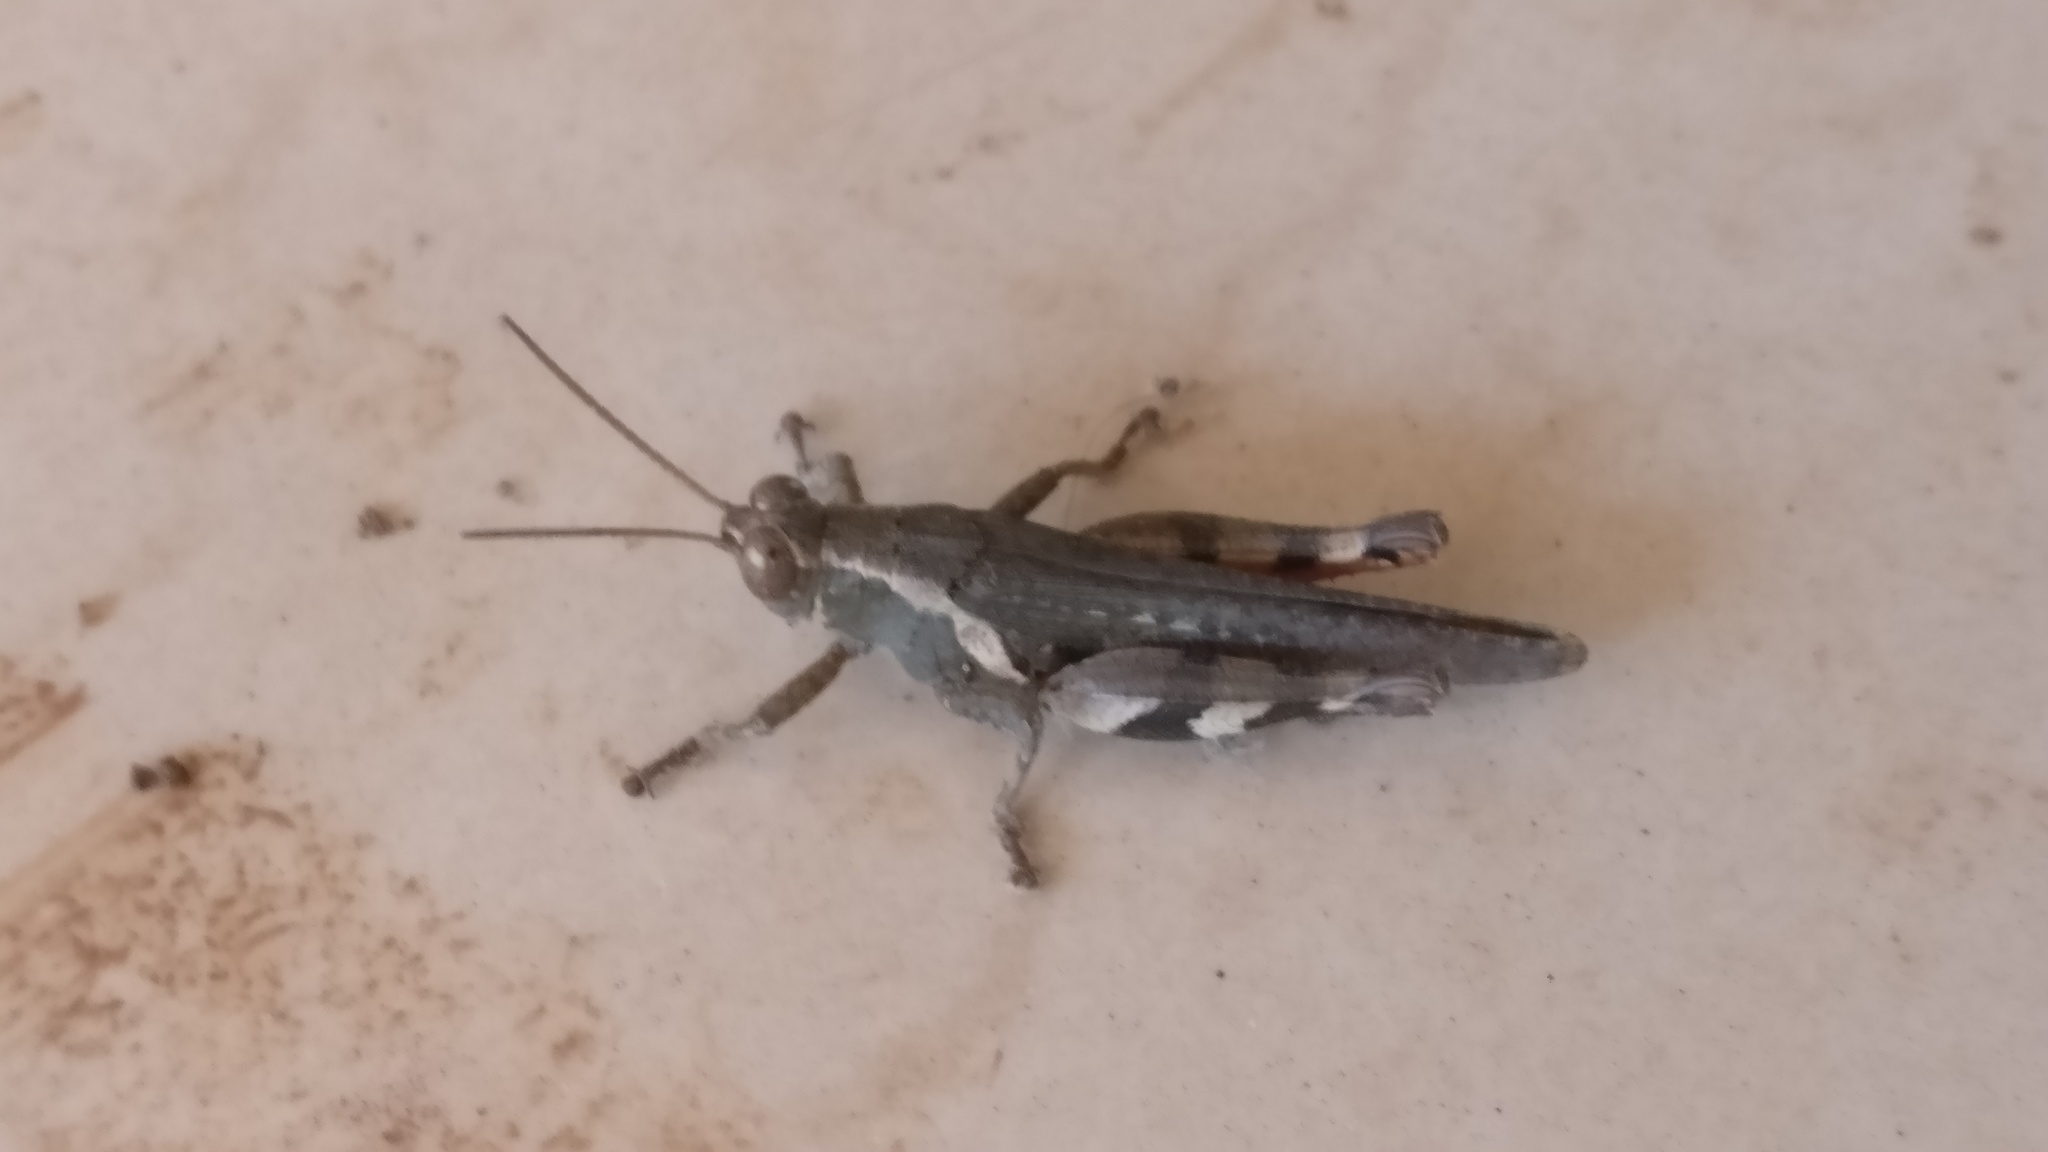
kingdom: Animalia
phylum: Arthropoda
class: Insecta
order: Orthoptera
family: Acrididae
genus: Xenocatantops
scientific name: Xenocatantops humile
